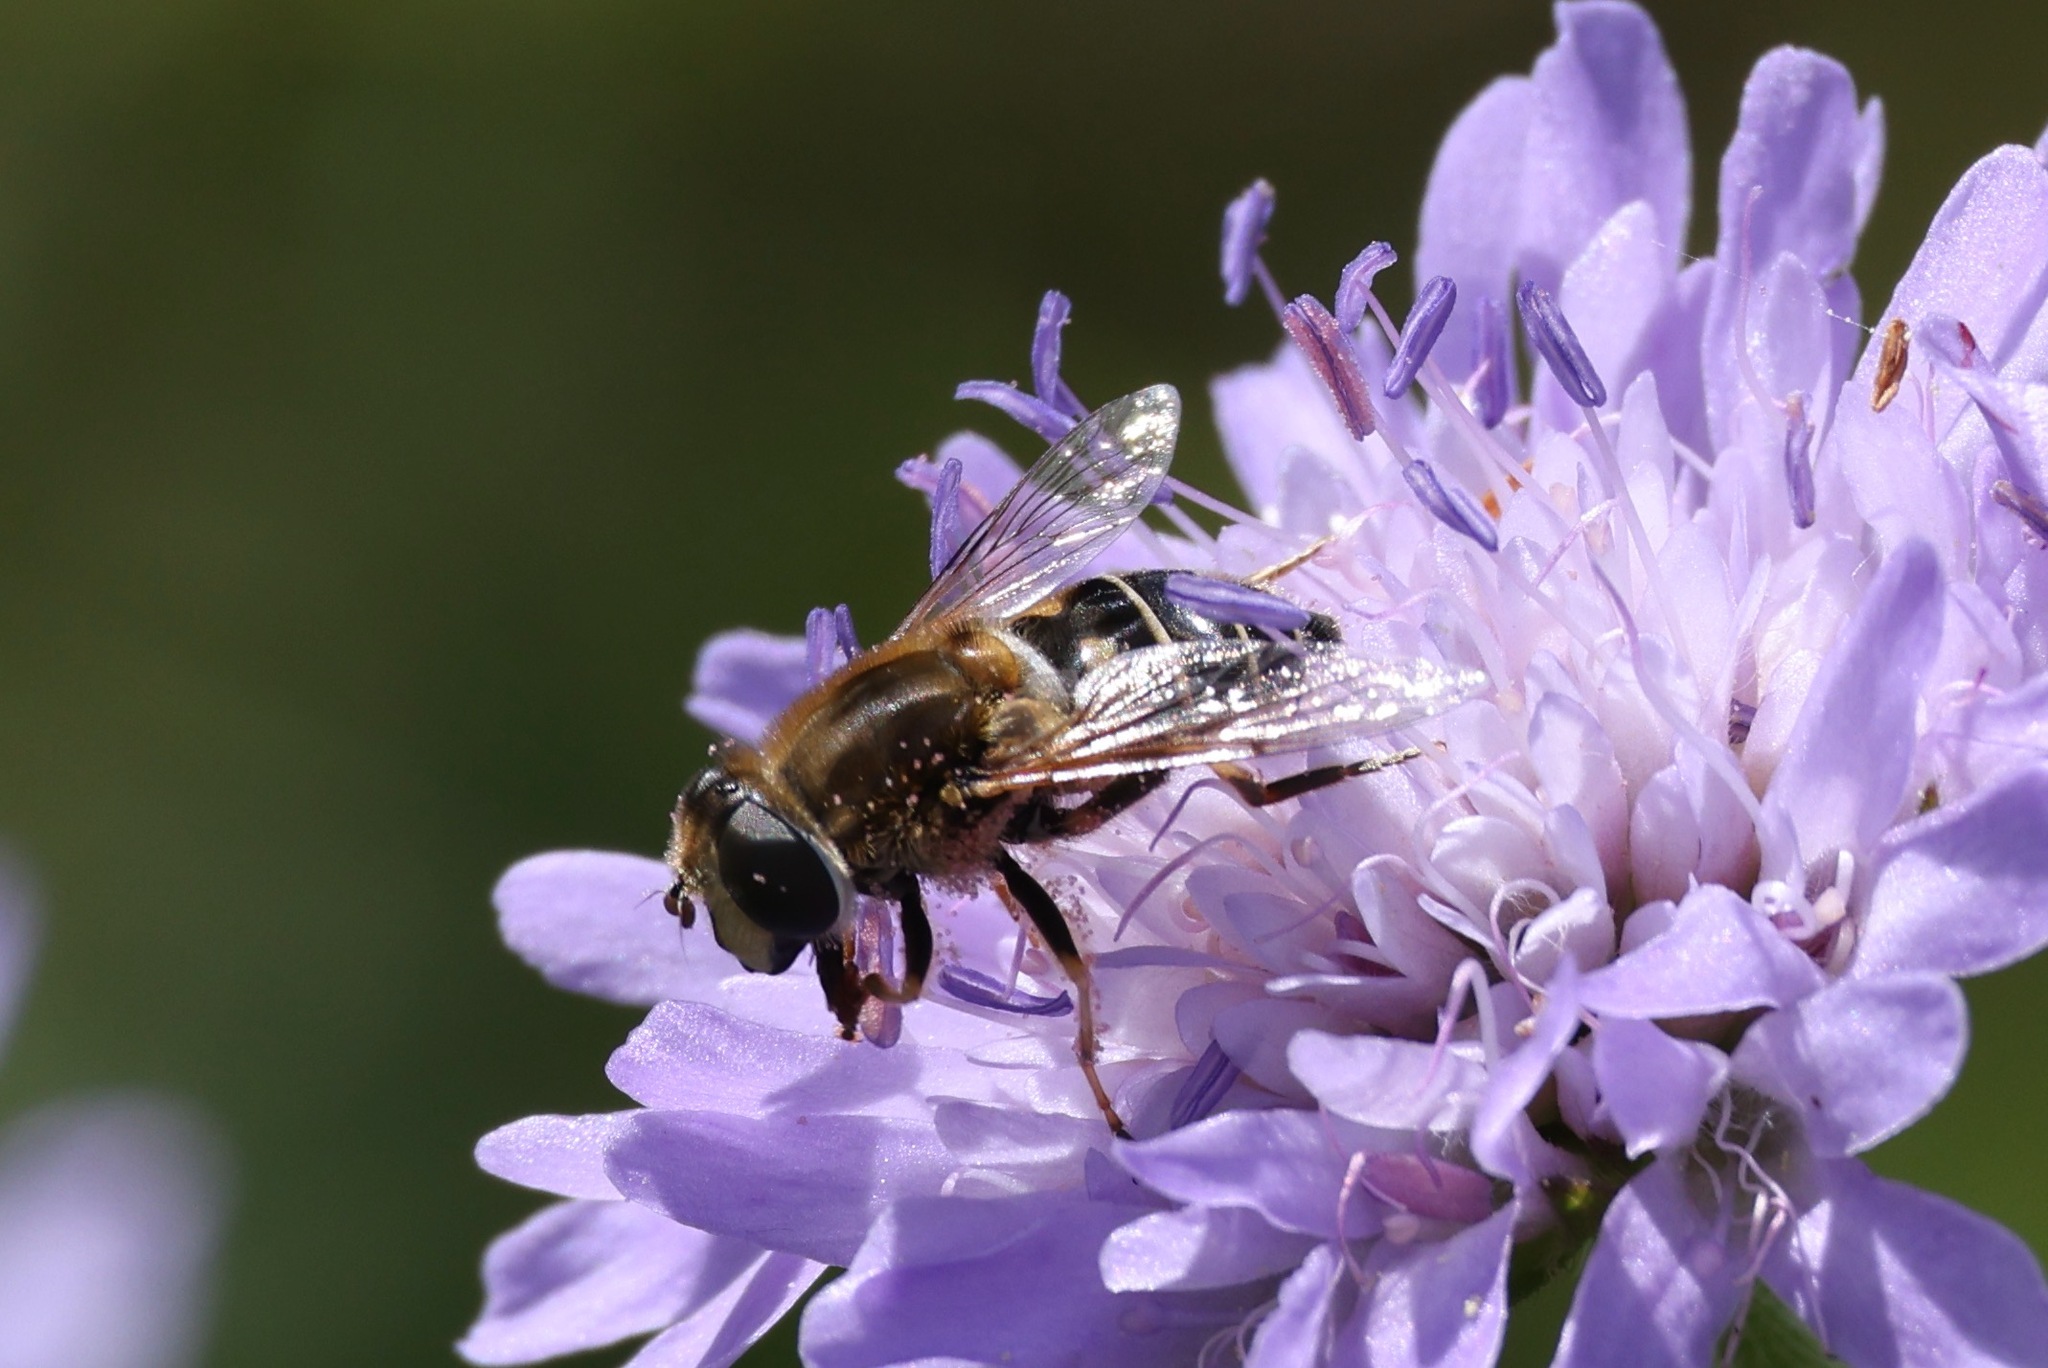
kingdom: Animalia
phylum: Arthropoda
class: Insecta
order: Diptera
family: Syrphidae
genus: Eristalis
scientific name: Eristalis nemorum
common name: Orange-spined drone fly
